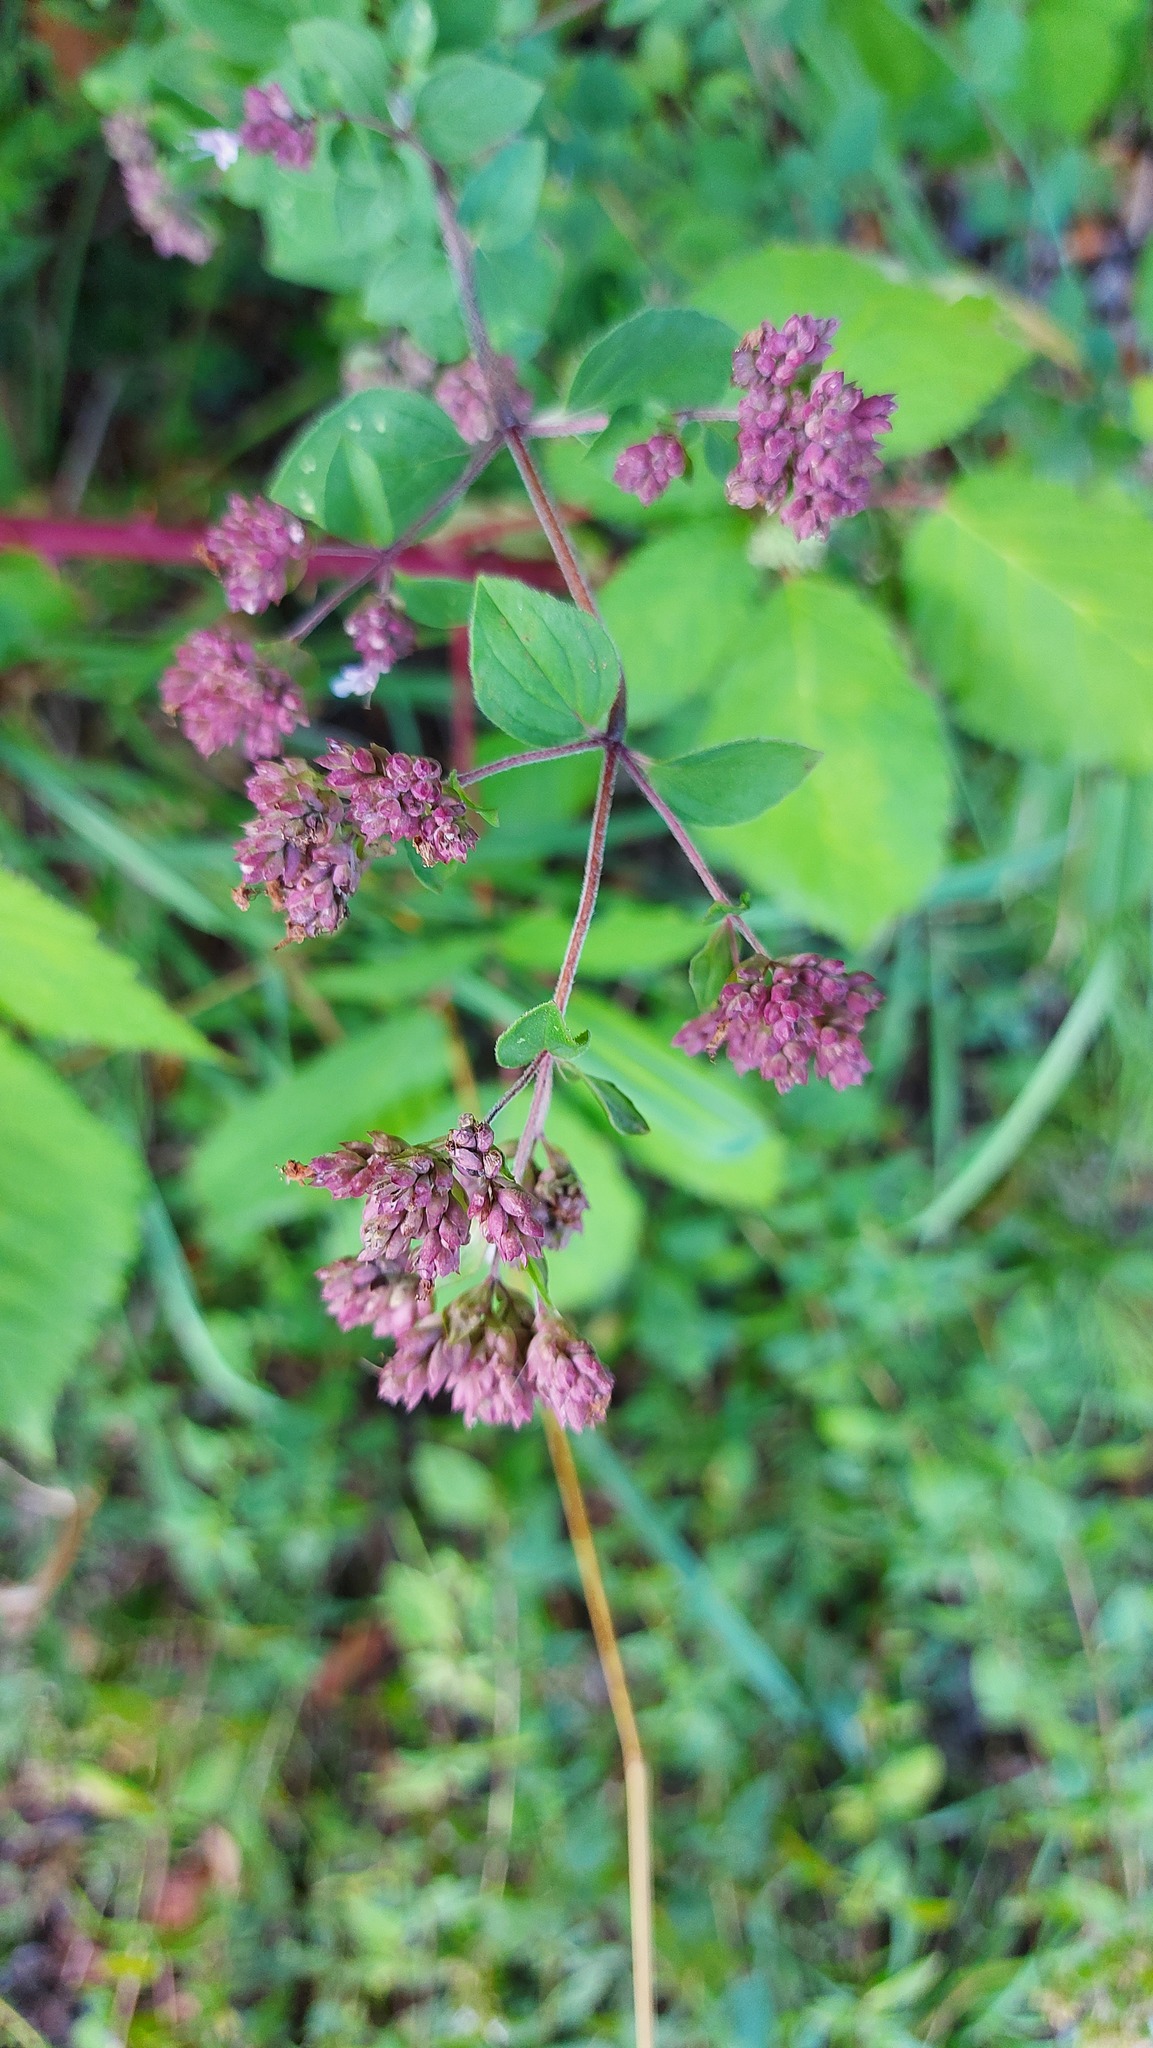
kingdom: Plantae
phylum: Tracheophyta
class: Magnoliopsida
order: Lamiales
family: Lamiaceae
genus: Origanum
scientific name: Origanum vulgare
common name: Wild marjoram
